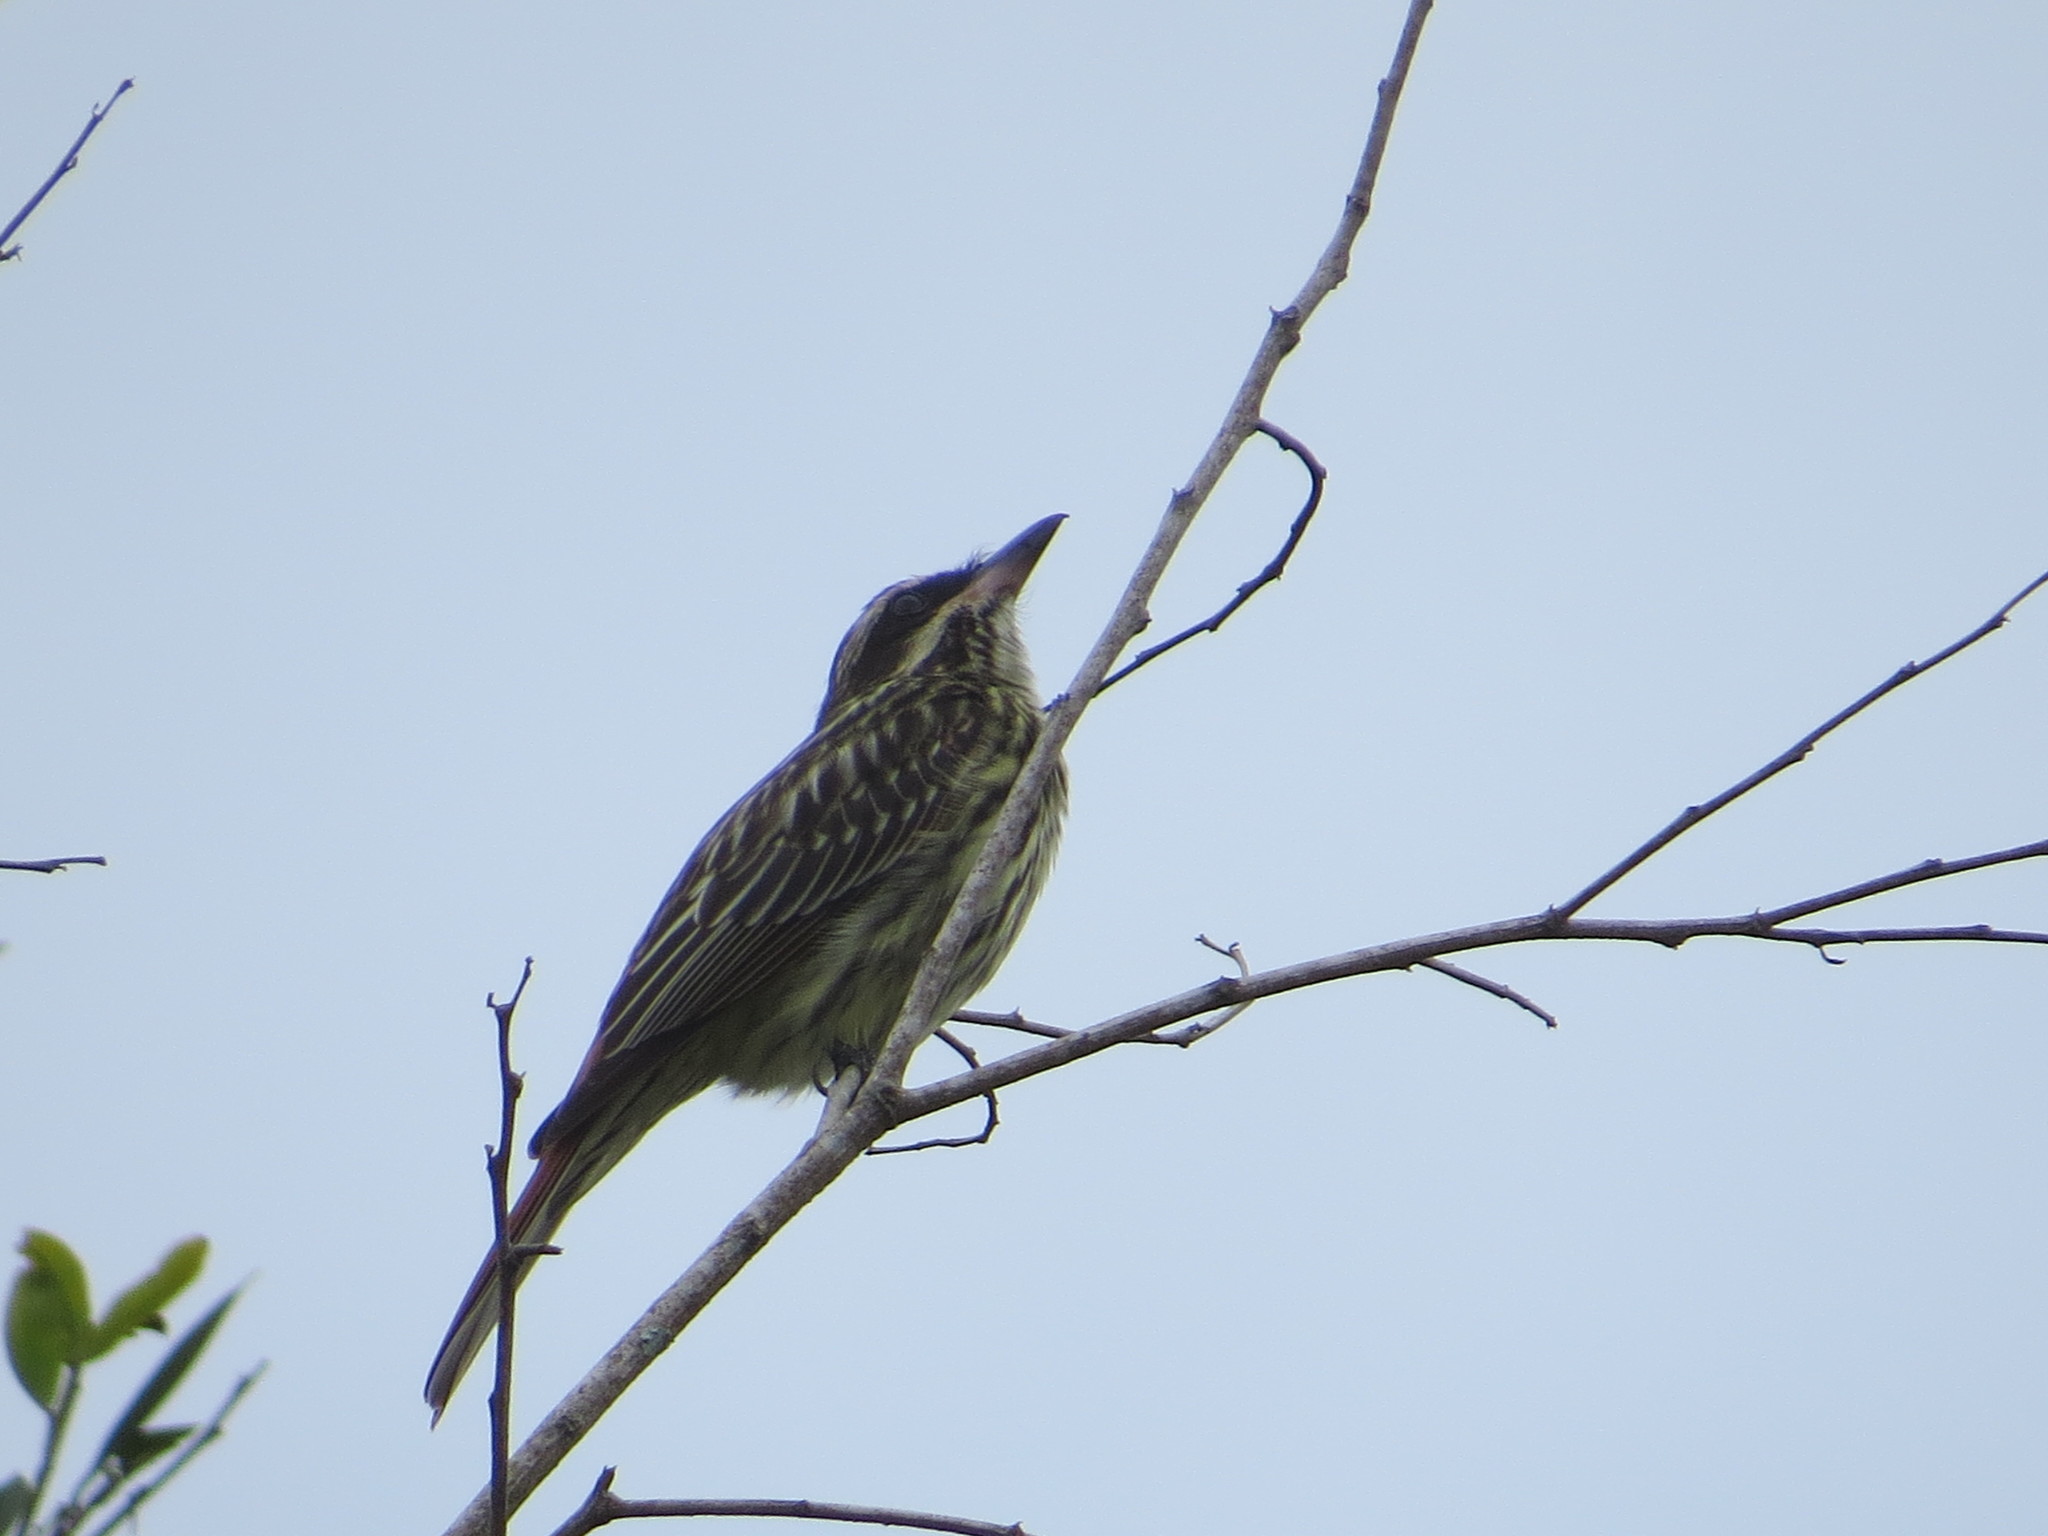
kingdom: Animalia
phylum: Chordata
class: Aves
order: Passeriformes
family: Tyrannidae
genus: Myiodynastes
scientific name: Myiodynastes maculatus
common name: Streaked flycatcher
